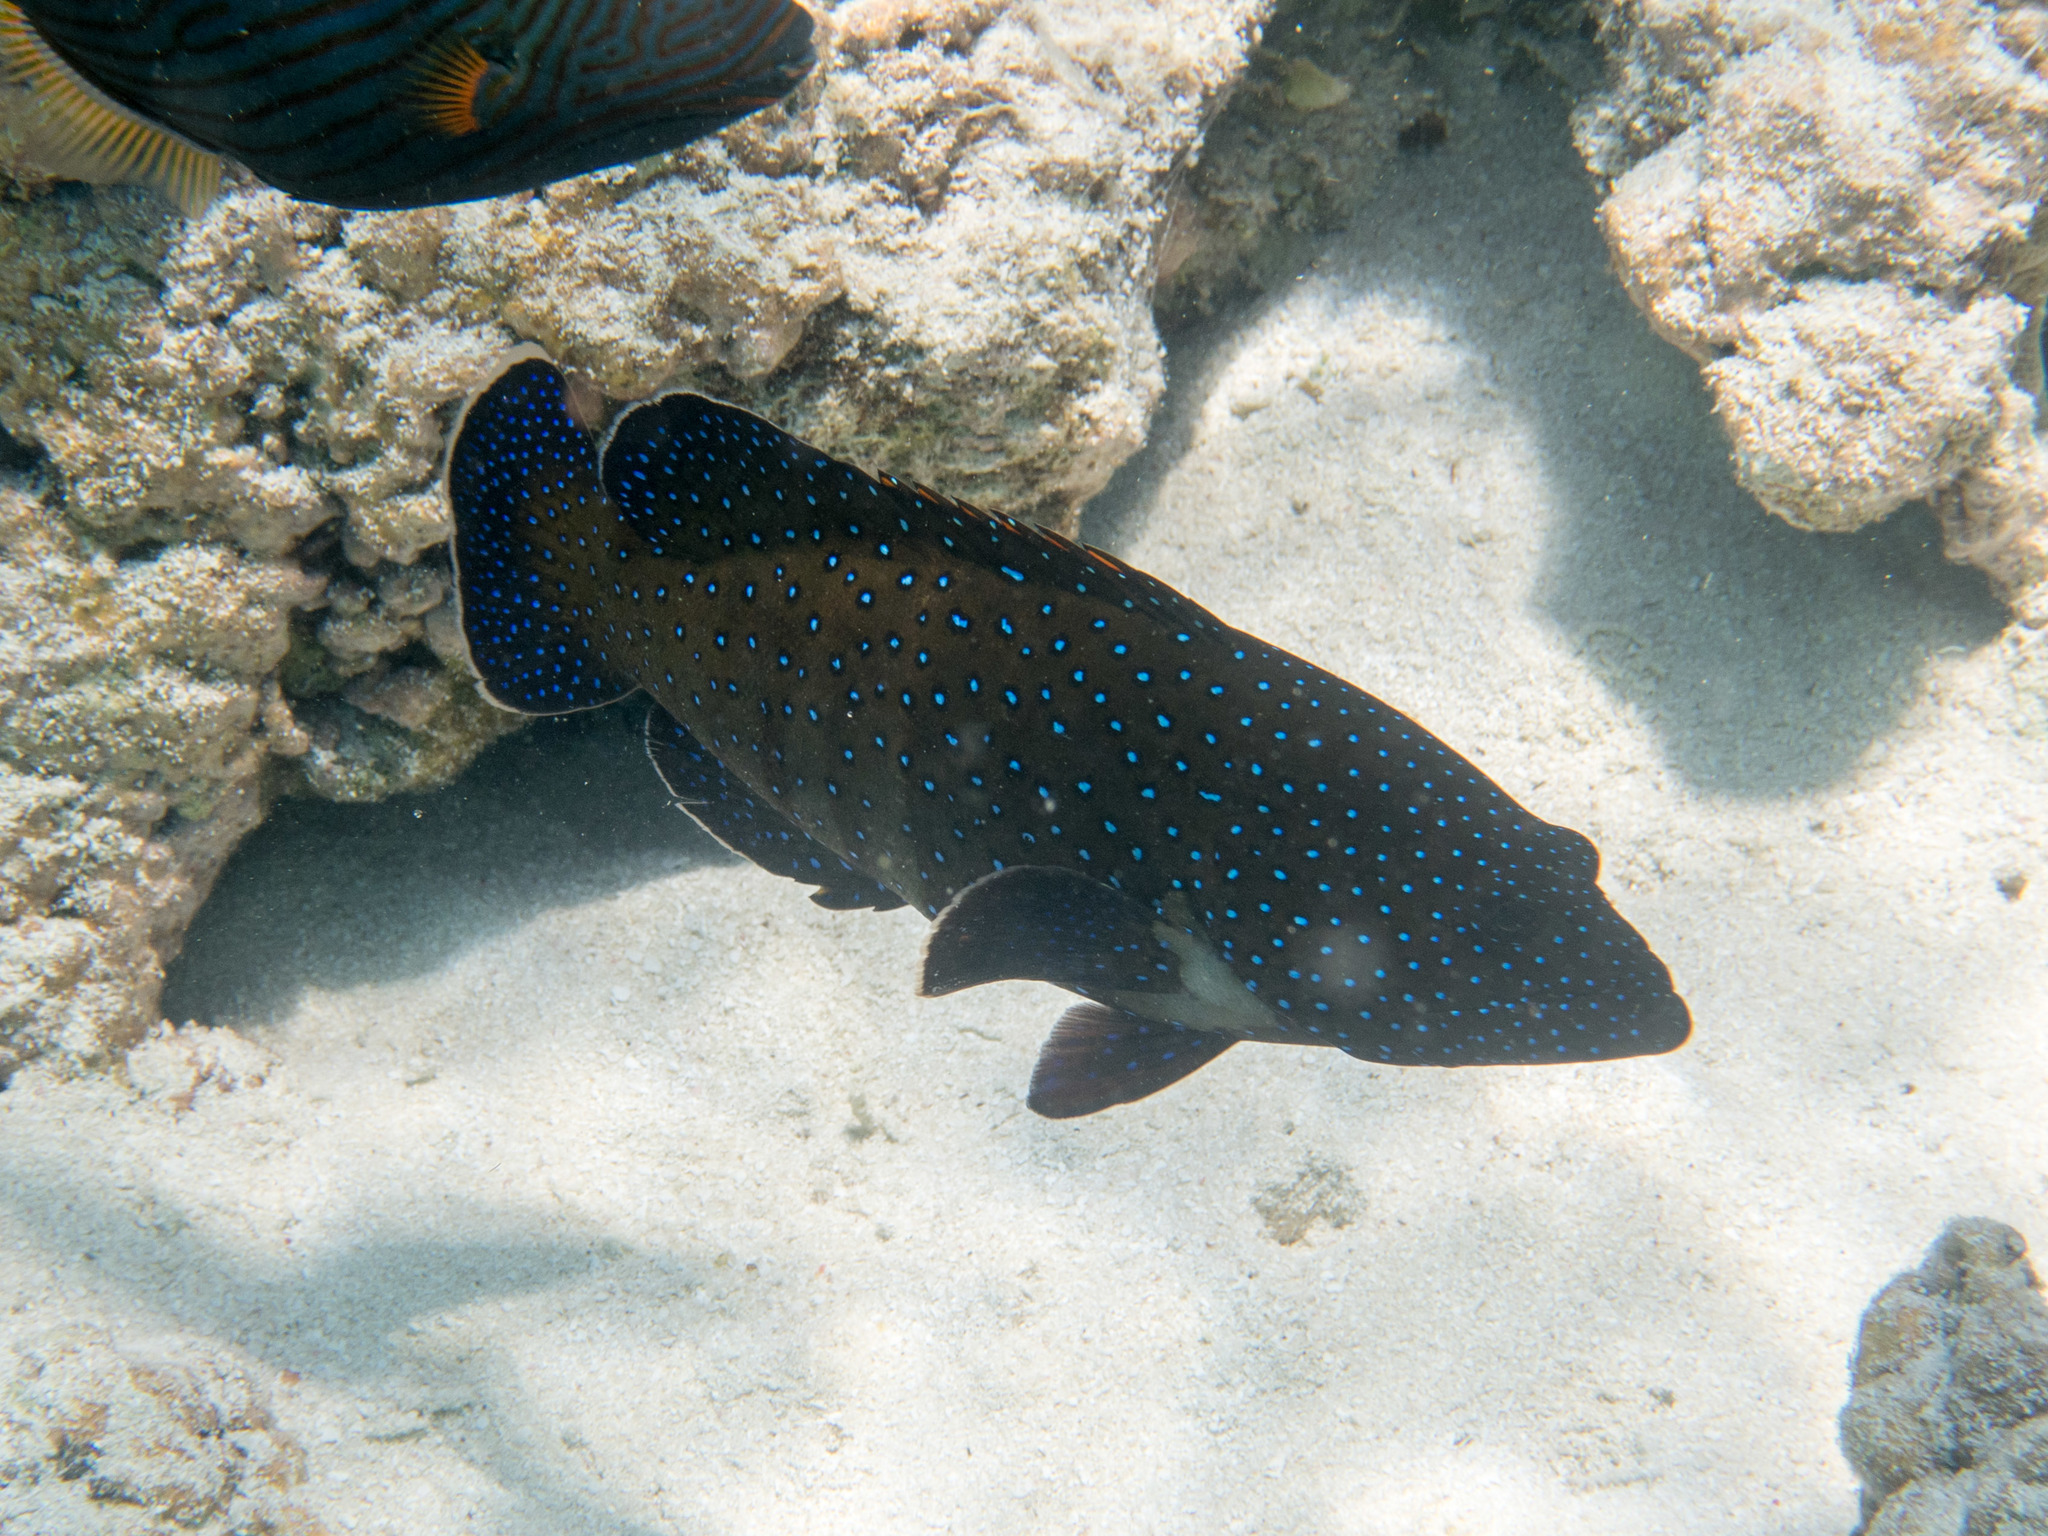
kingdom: Animalia
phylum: Chordata
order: Perciformes
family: Serranidae
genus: Cephalopholis
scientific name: Cephalopholis argus
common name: Peacock grouper
